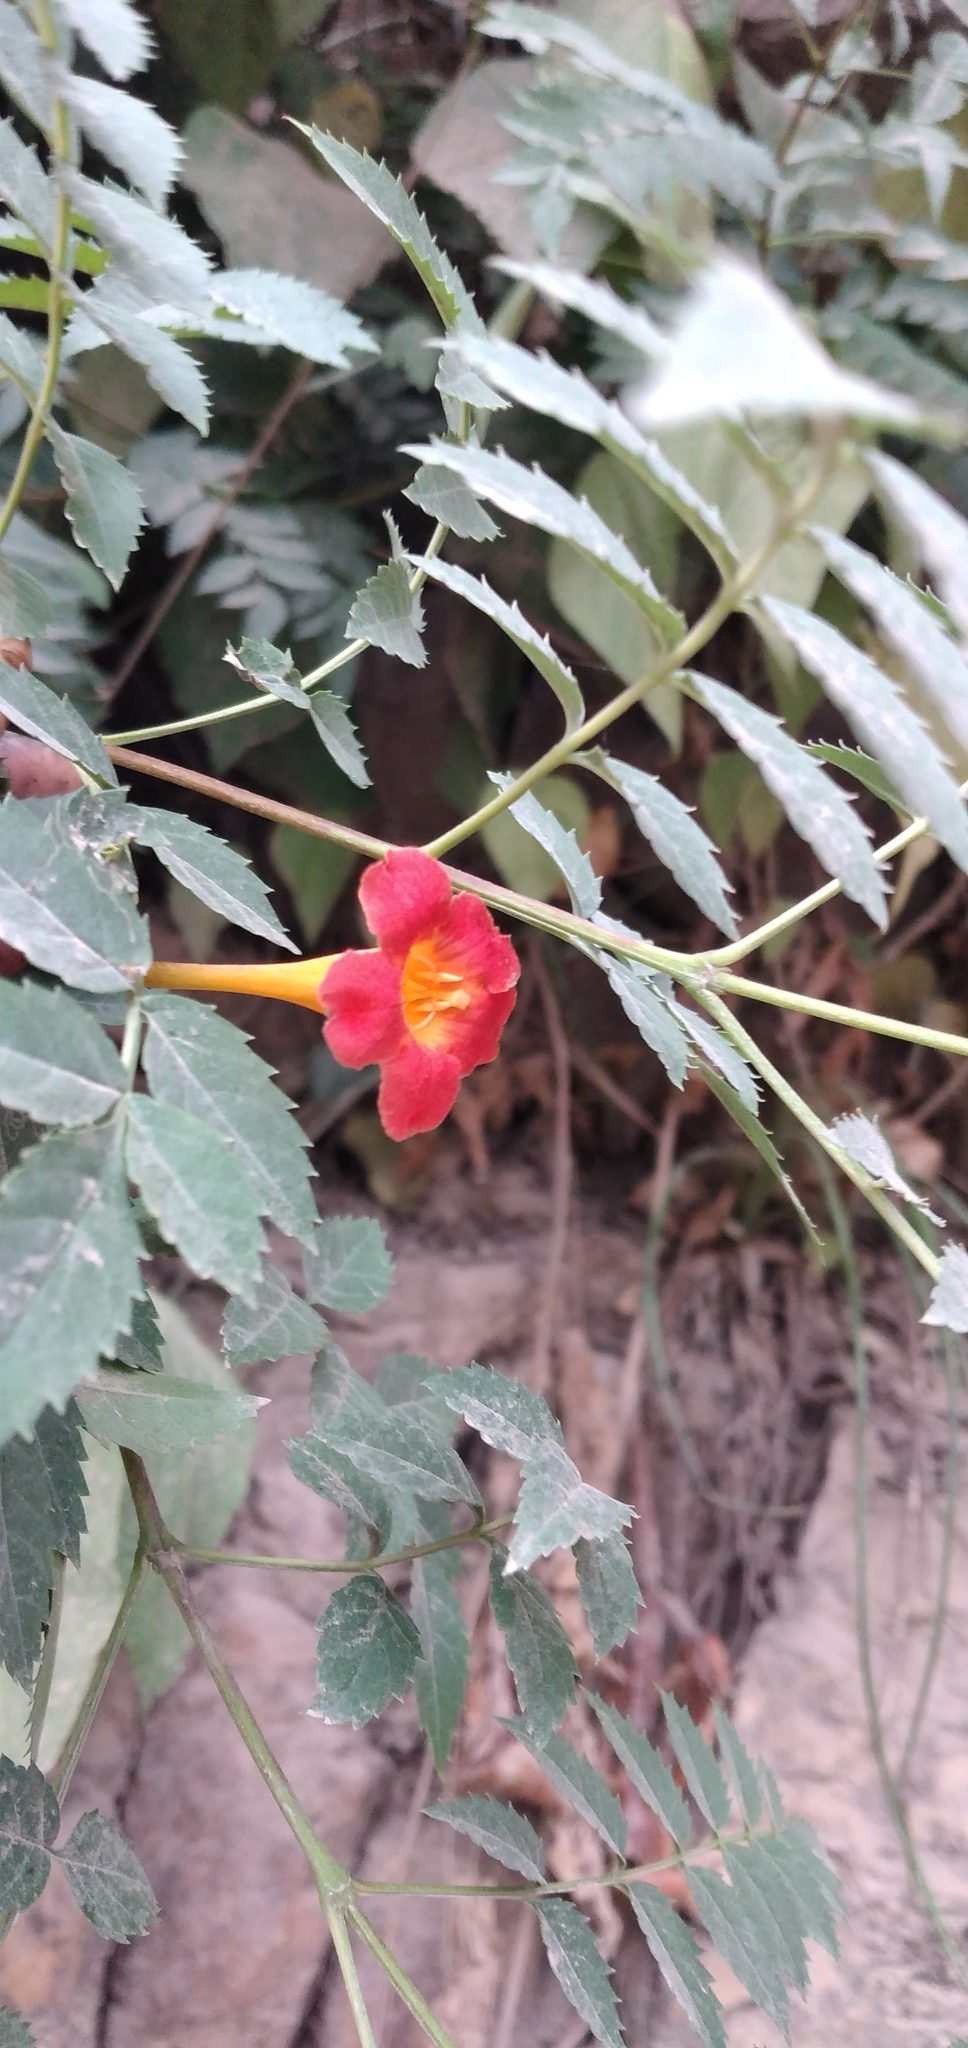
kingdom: Plantae
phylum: Tracheophyta
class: Magnoliopsida
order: Lamiales
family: Bignoniaceae
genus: Tecoma
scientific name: Tecoma fulva
